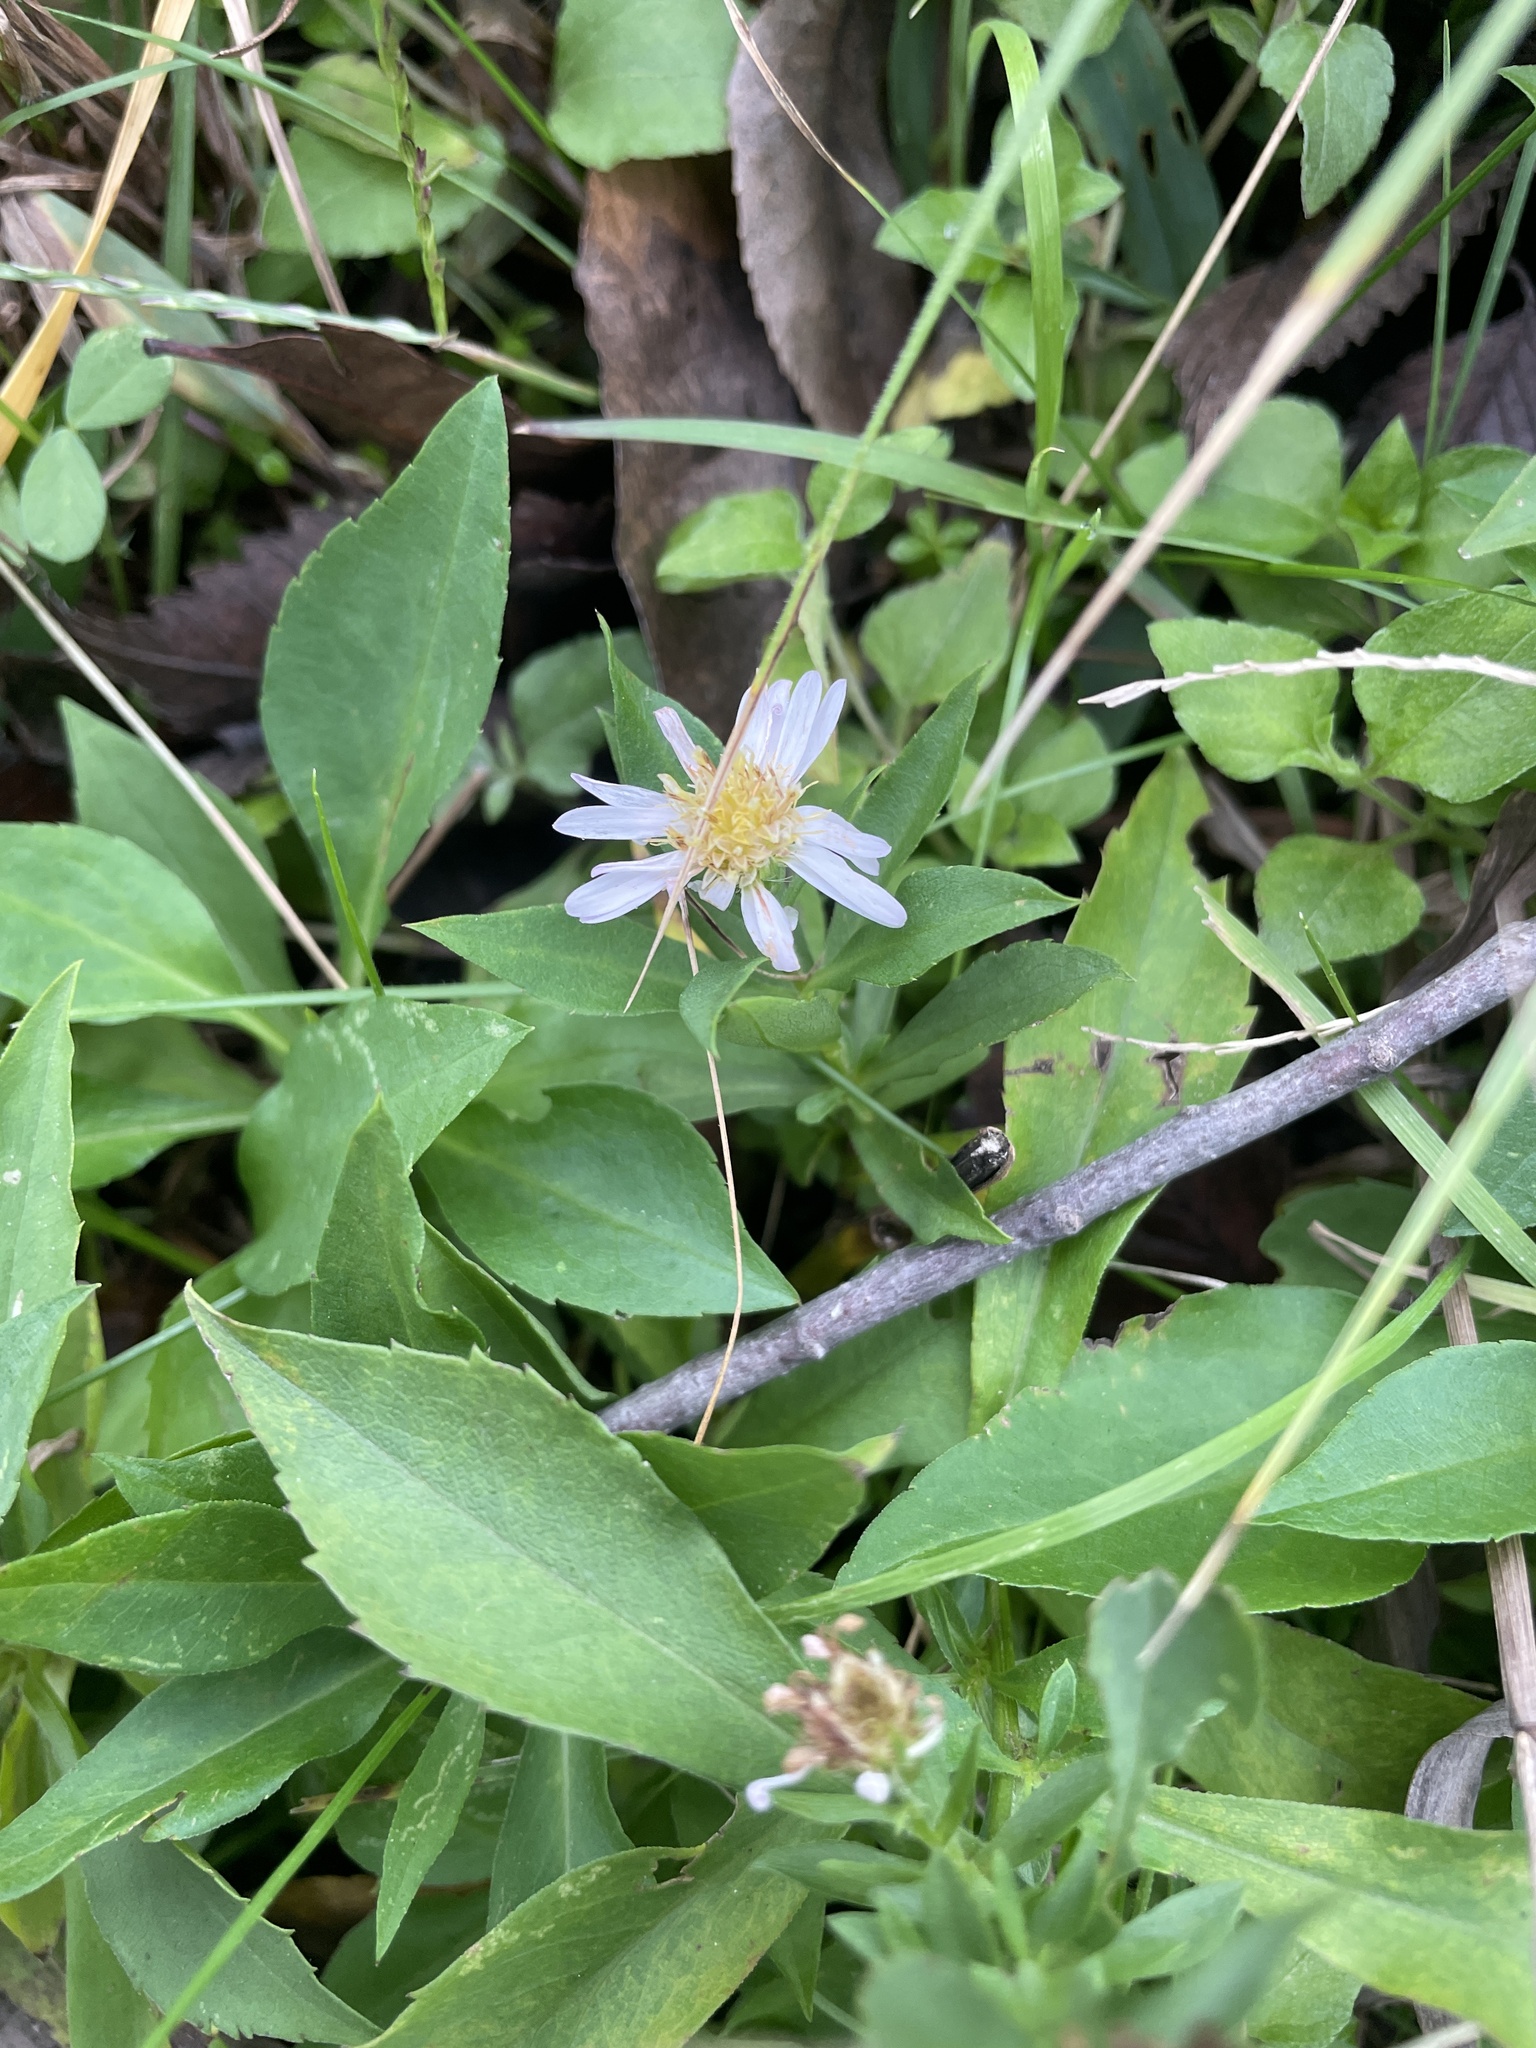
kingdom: Plantae
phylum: Tracheophyta
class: Magnoliopsida
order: Asterales
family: Asteraceae
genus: Symphyotrichum
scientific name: Symphyotrichum drummondii
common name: Drummond's aster
